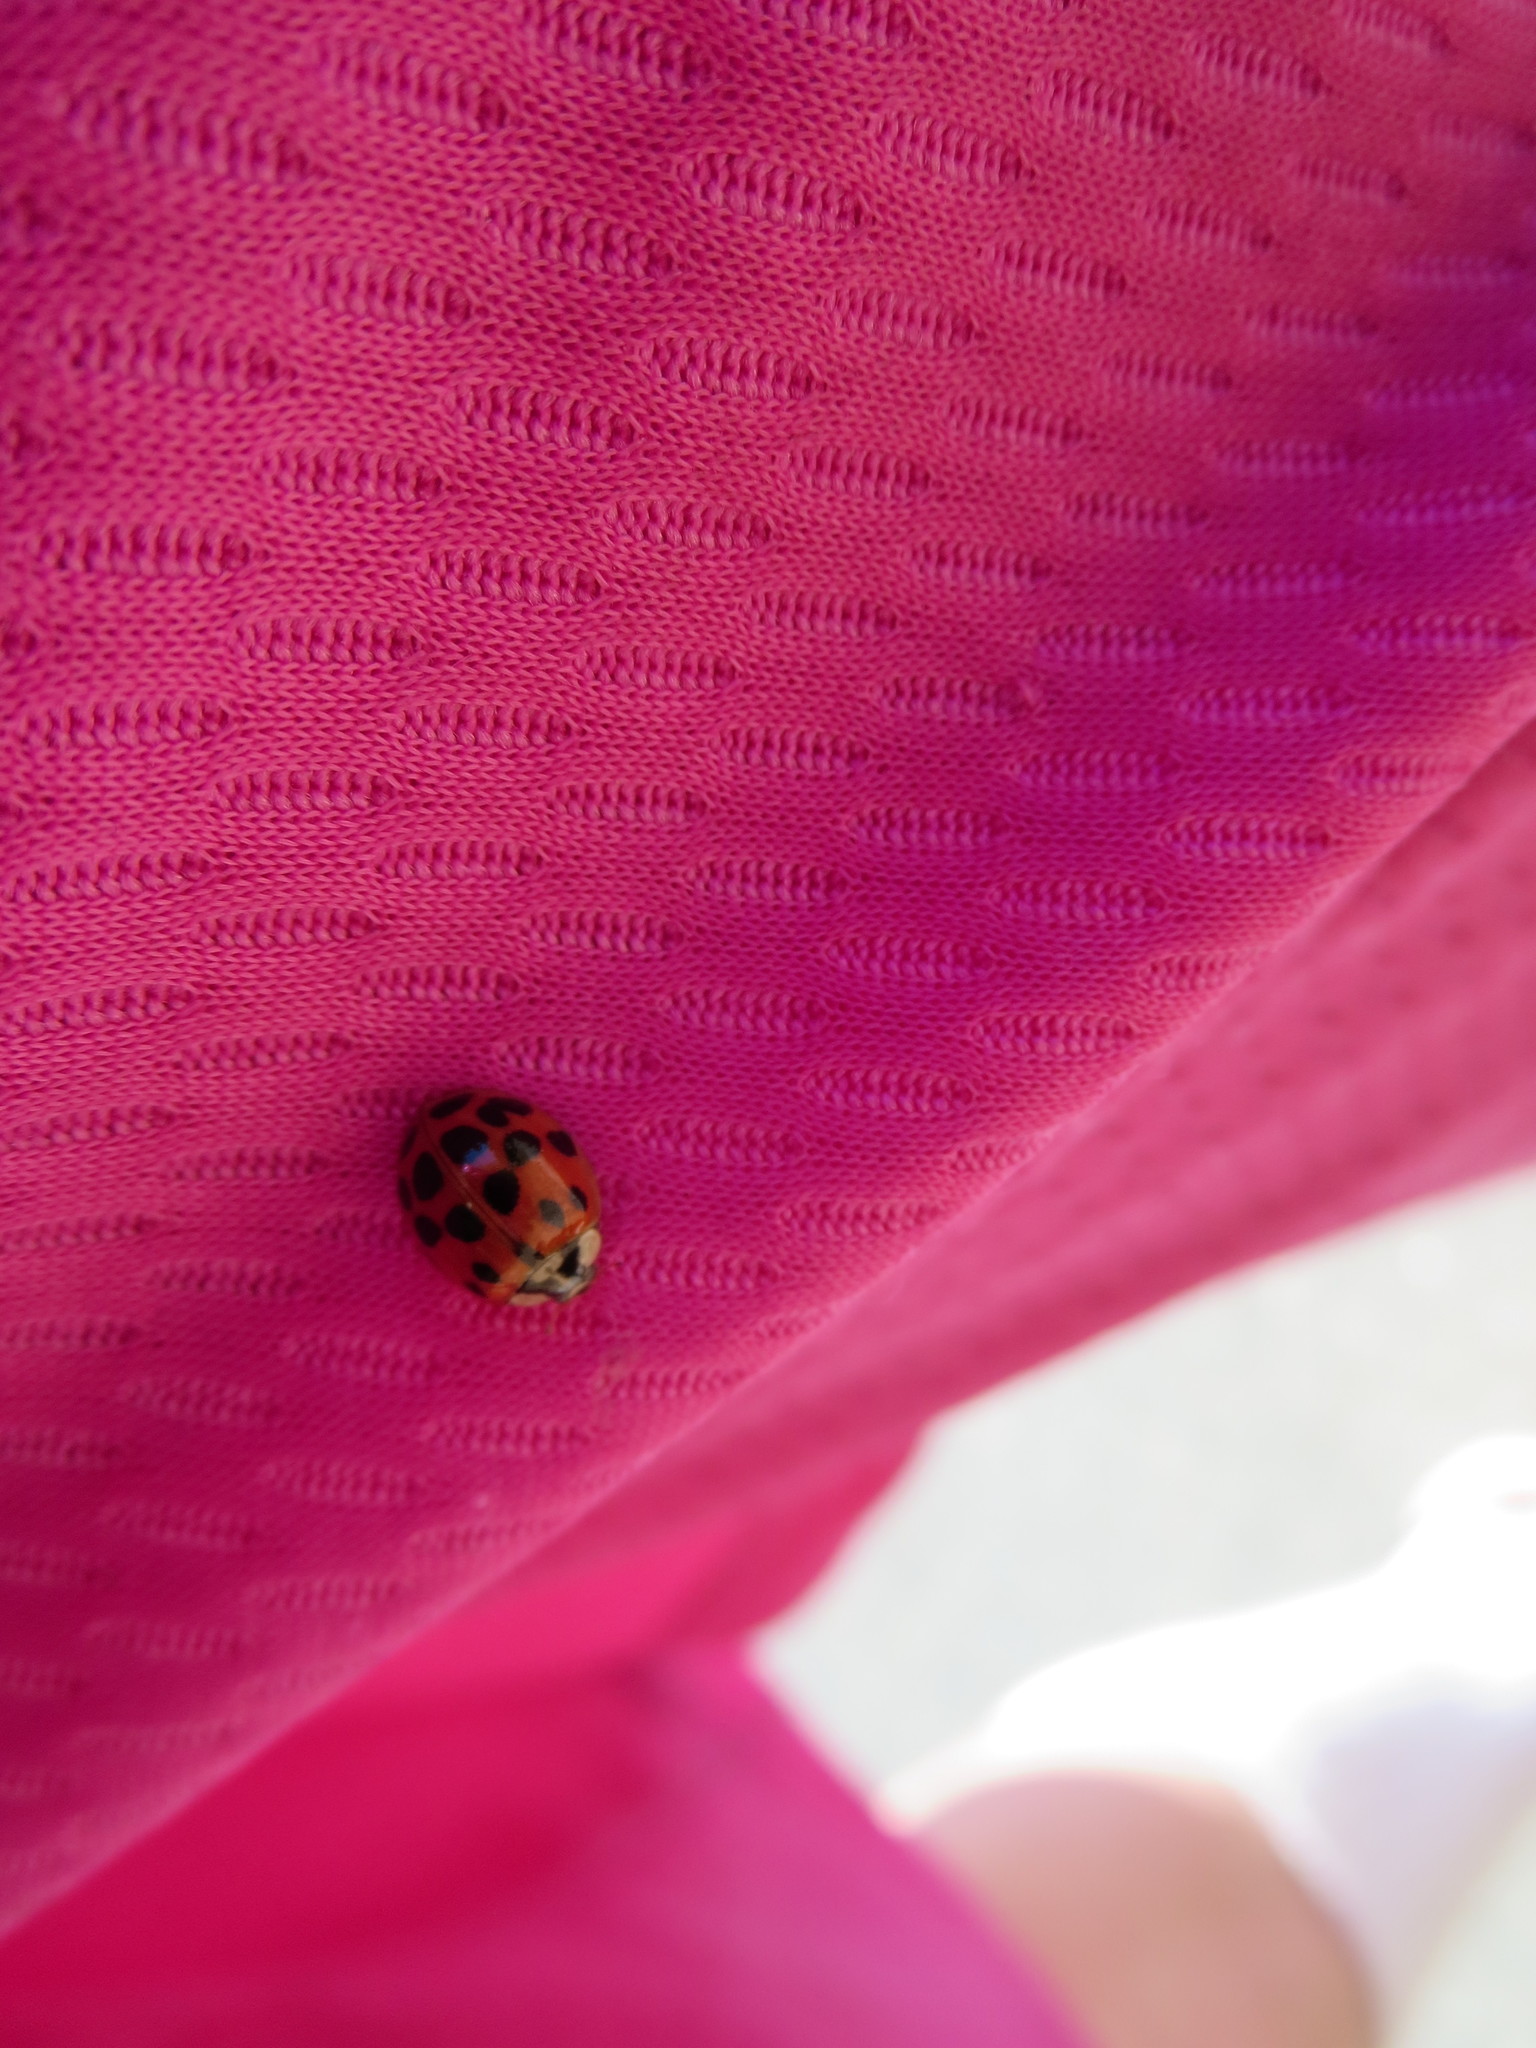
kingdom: Animalia
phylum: Arthropoda
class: Insecta
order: Coleoptera
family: Coccinellidae
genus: Harmonia
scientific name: Harmonia axyridis
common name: Harlequin ladybird
